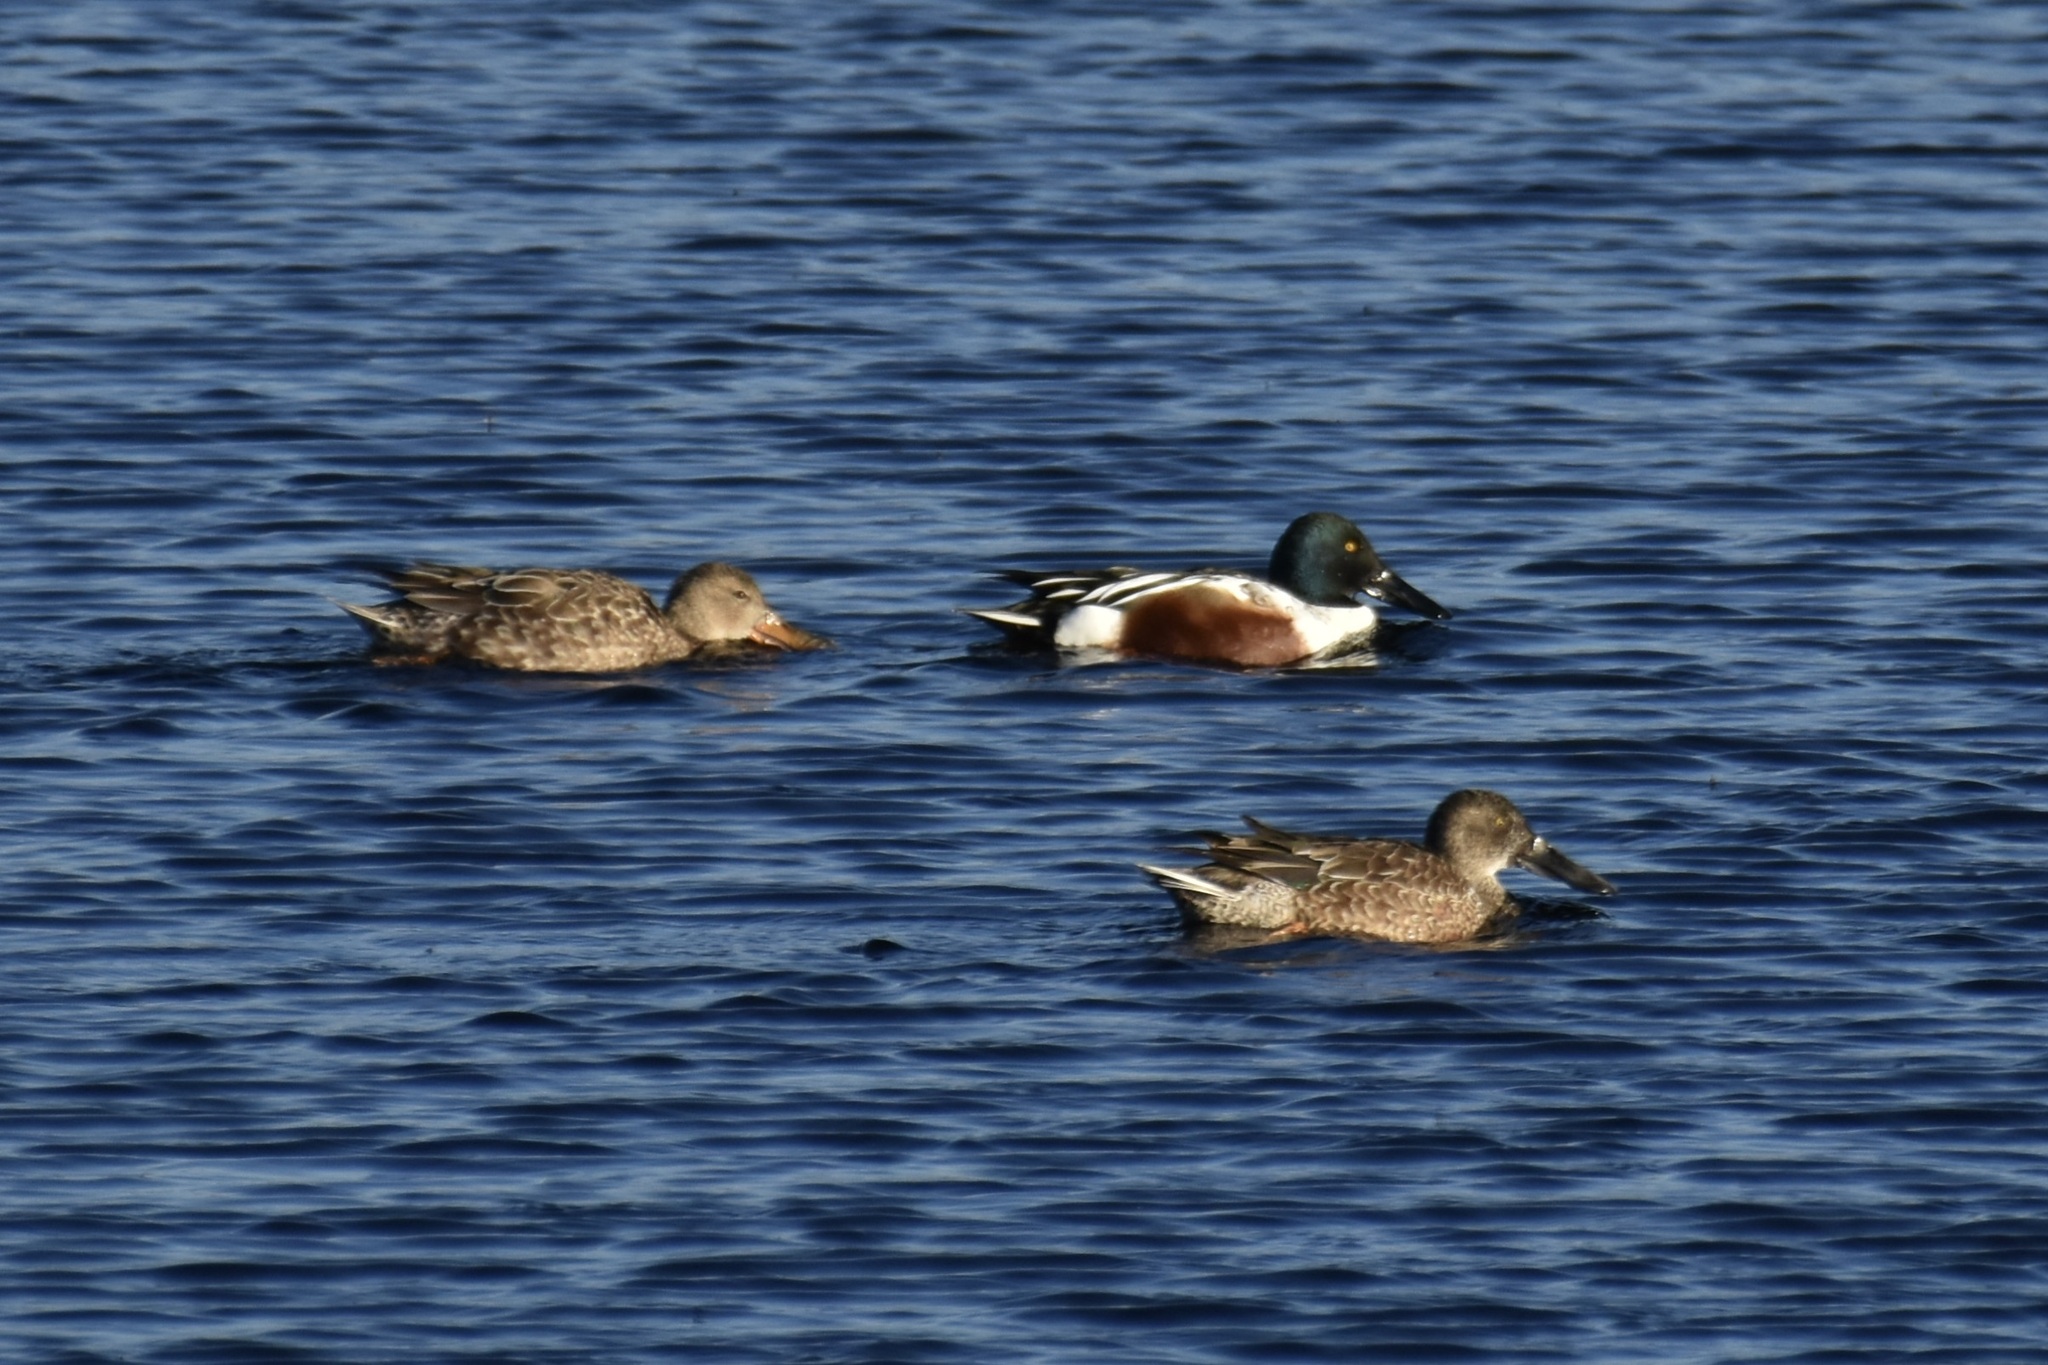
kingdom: Animalia
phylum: Chordata
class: Aves
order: Anseriformes
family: Anatidae
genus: Spatula
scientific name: Spatula clypeata
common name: Northern shoveler
